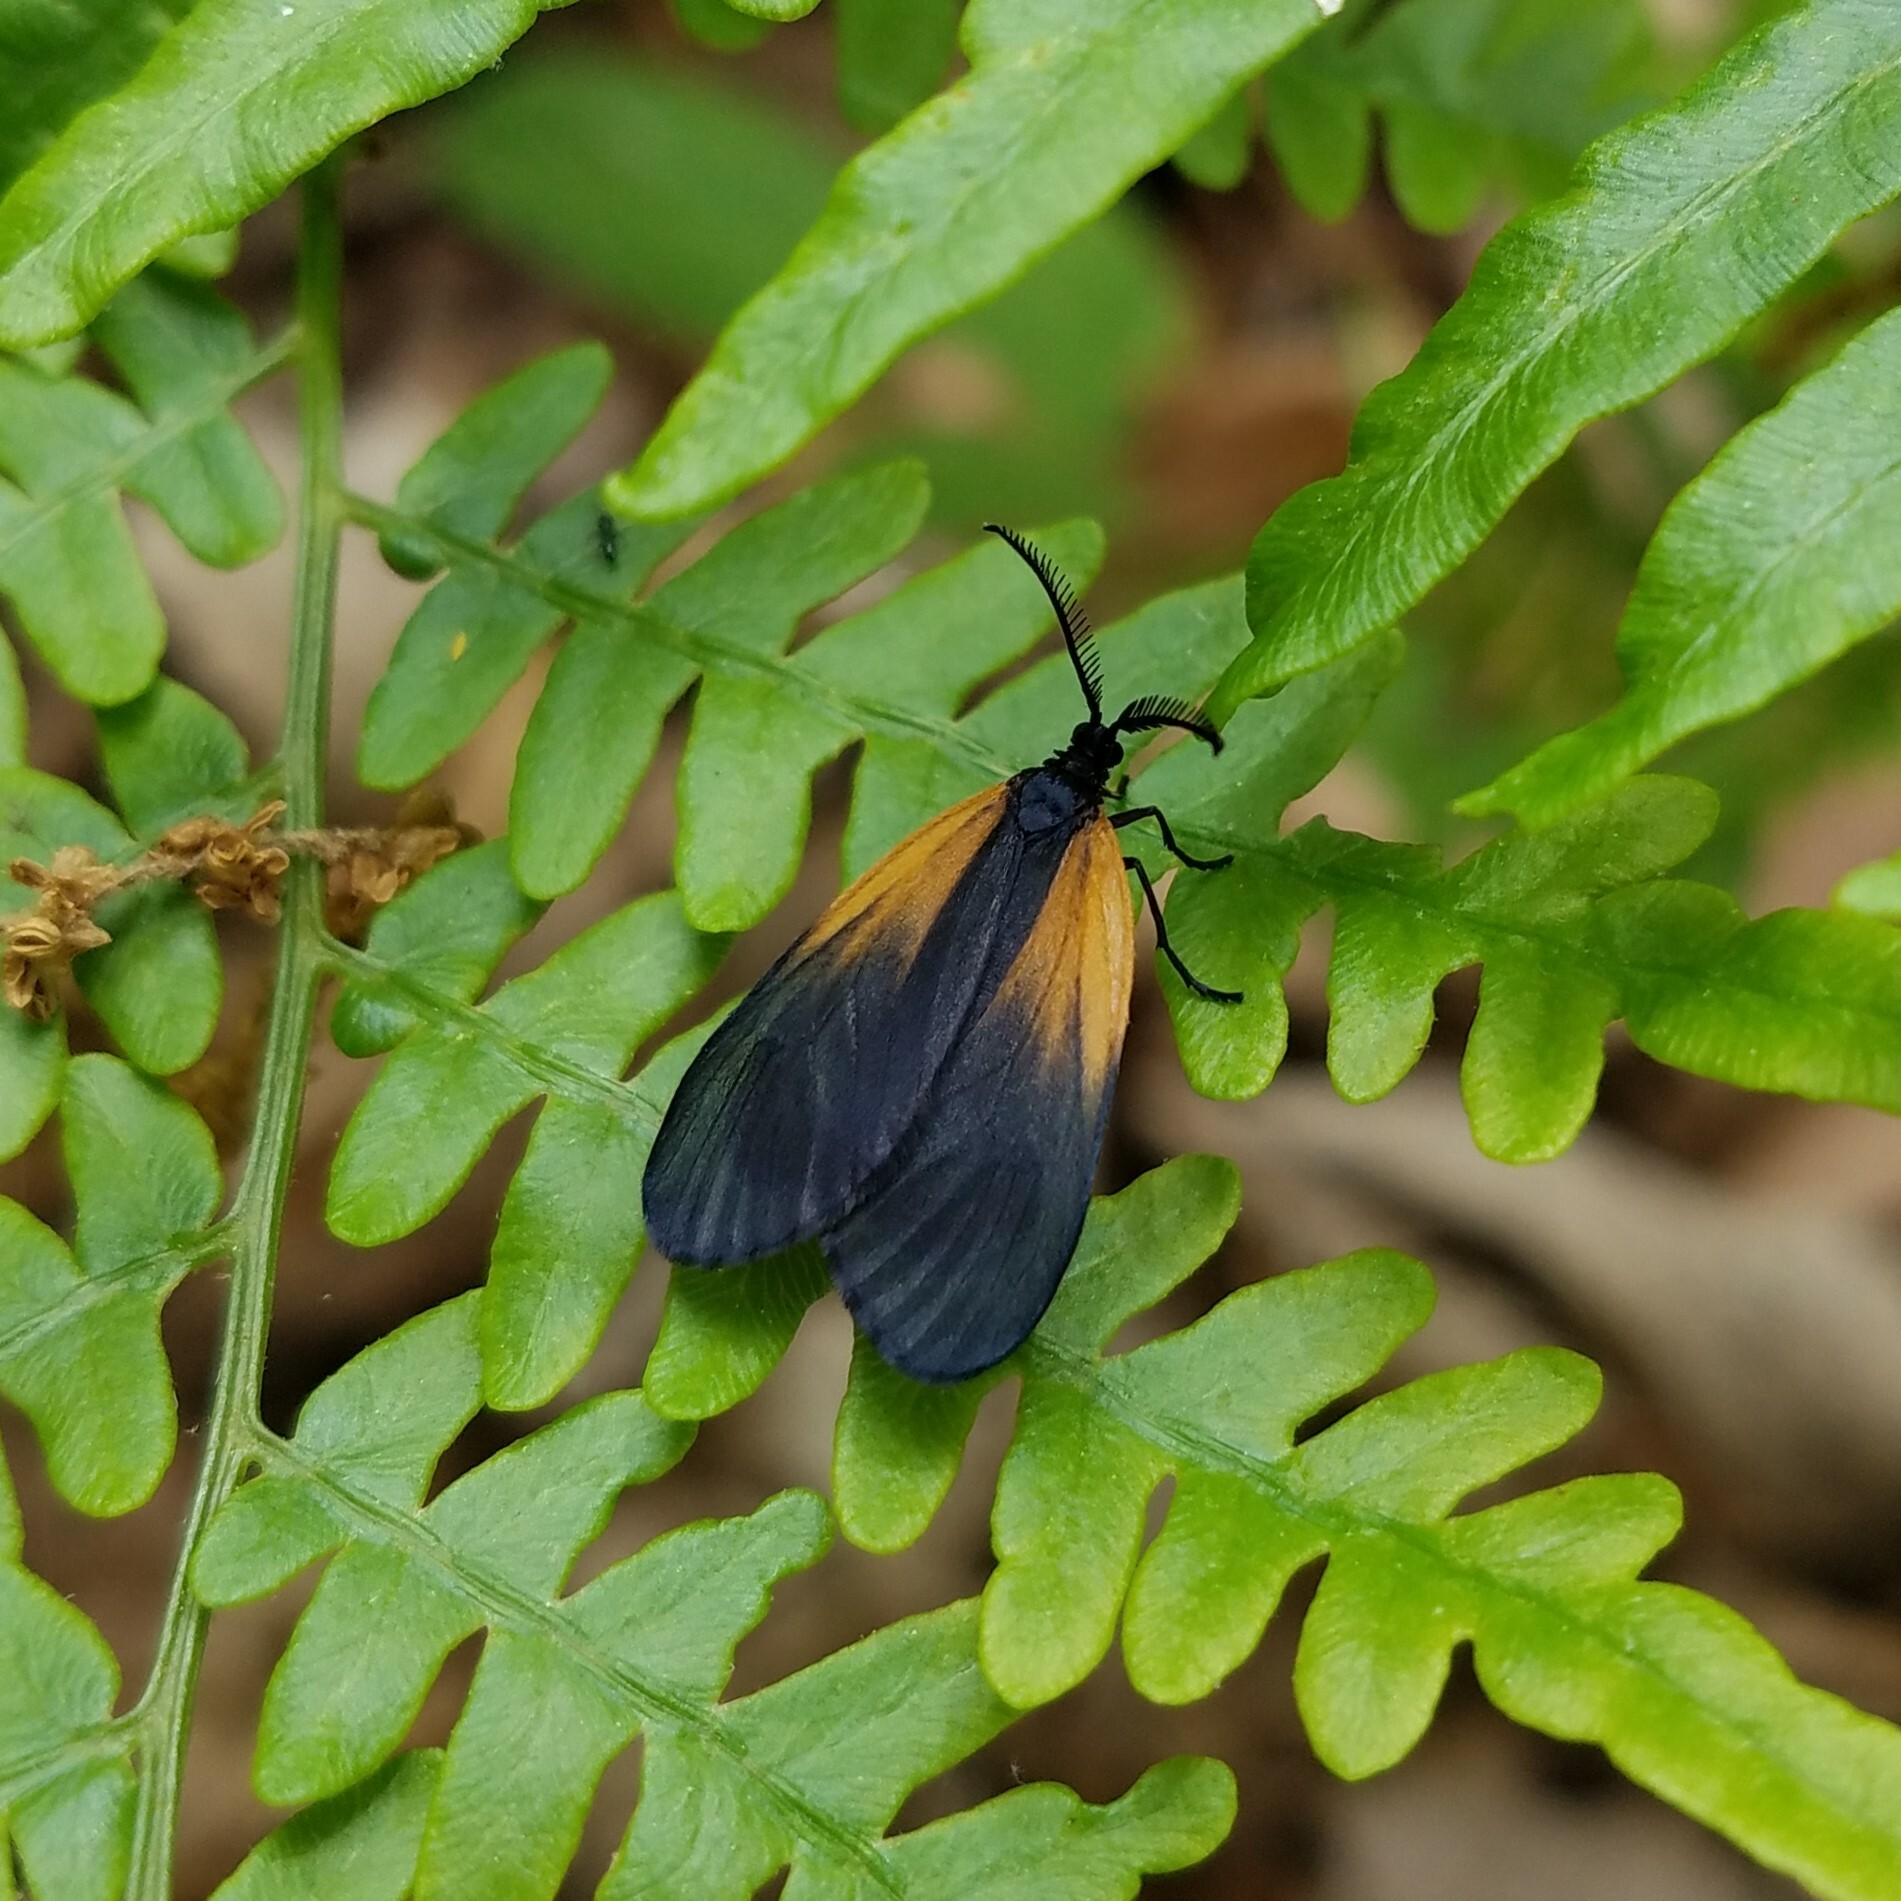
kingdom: Animalia
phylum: Arthropoda
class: Insecta
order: Lepidoptera
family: Zygaenidae
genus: Malthaca
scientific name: Malthaca dimidiata
